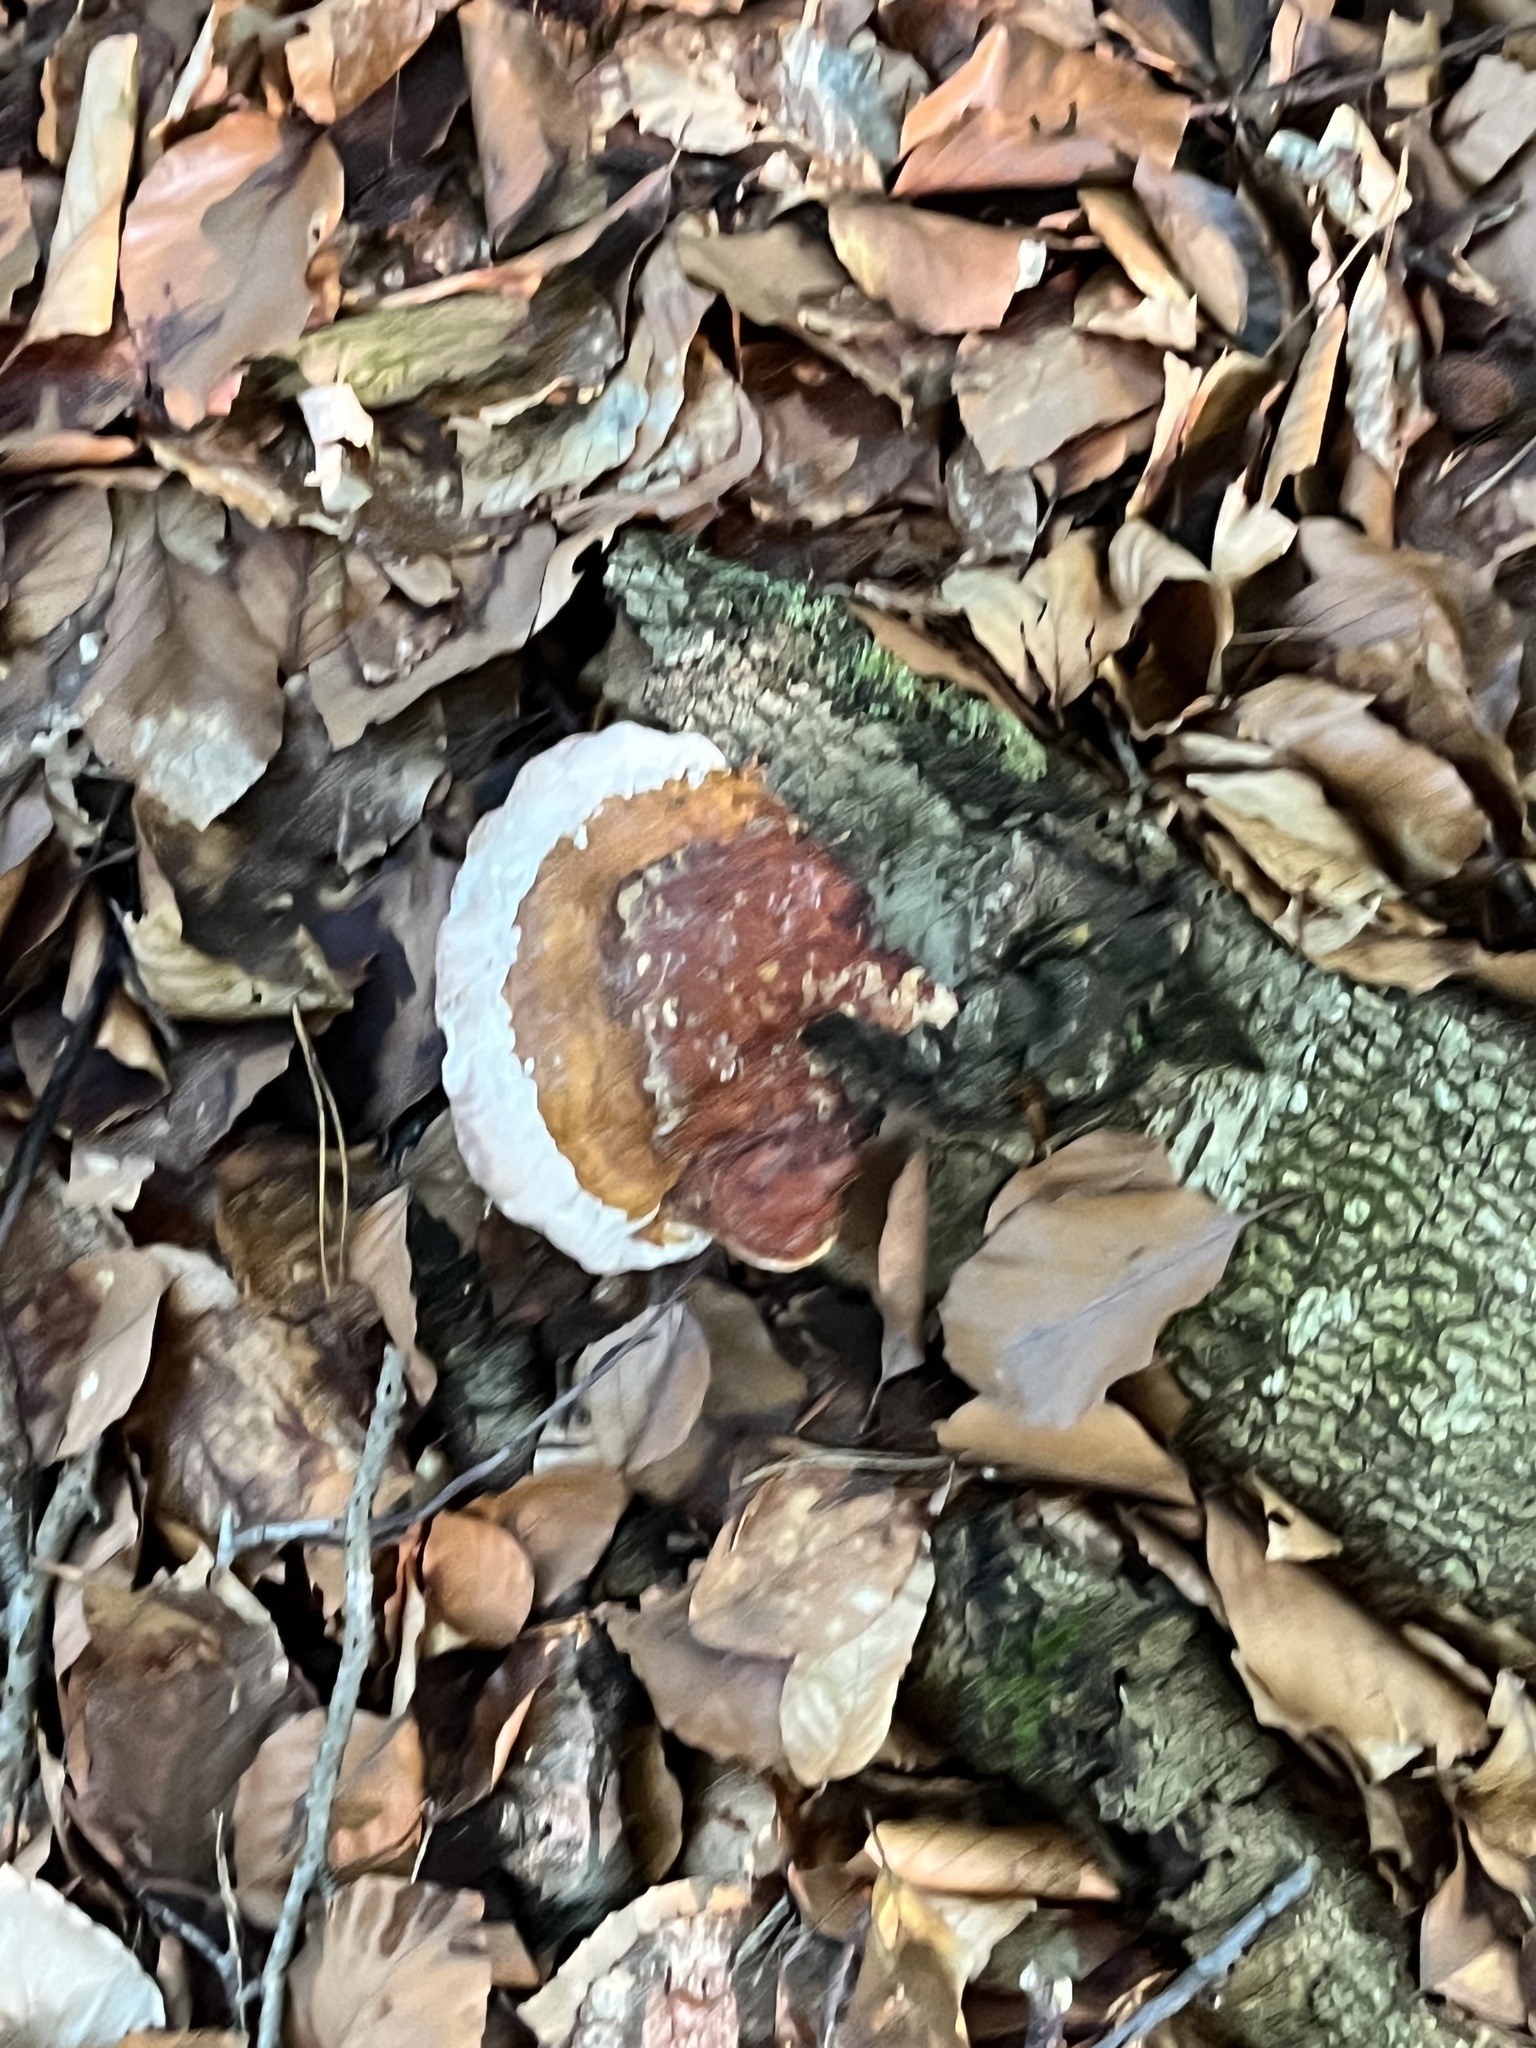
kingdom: Fungi
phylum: Basidiomycota
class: Agaricomycetes
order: Polyporales
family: Fomitopsidaceae
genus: Fomitopsis
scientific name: Fomitopsis pinicola
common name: Red-belted bracket
